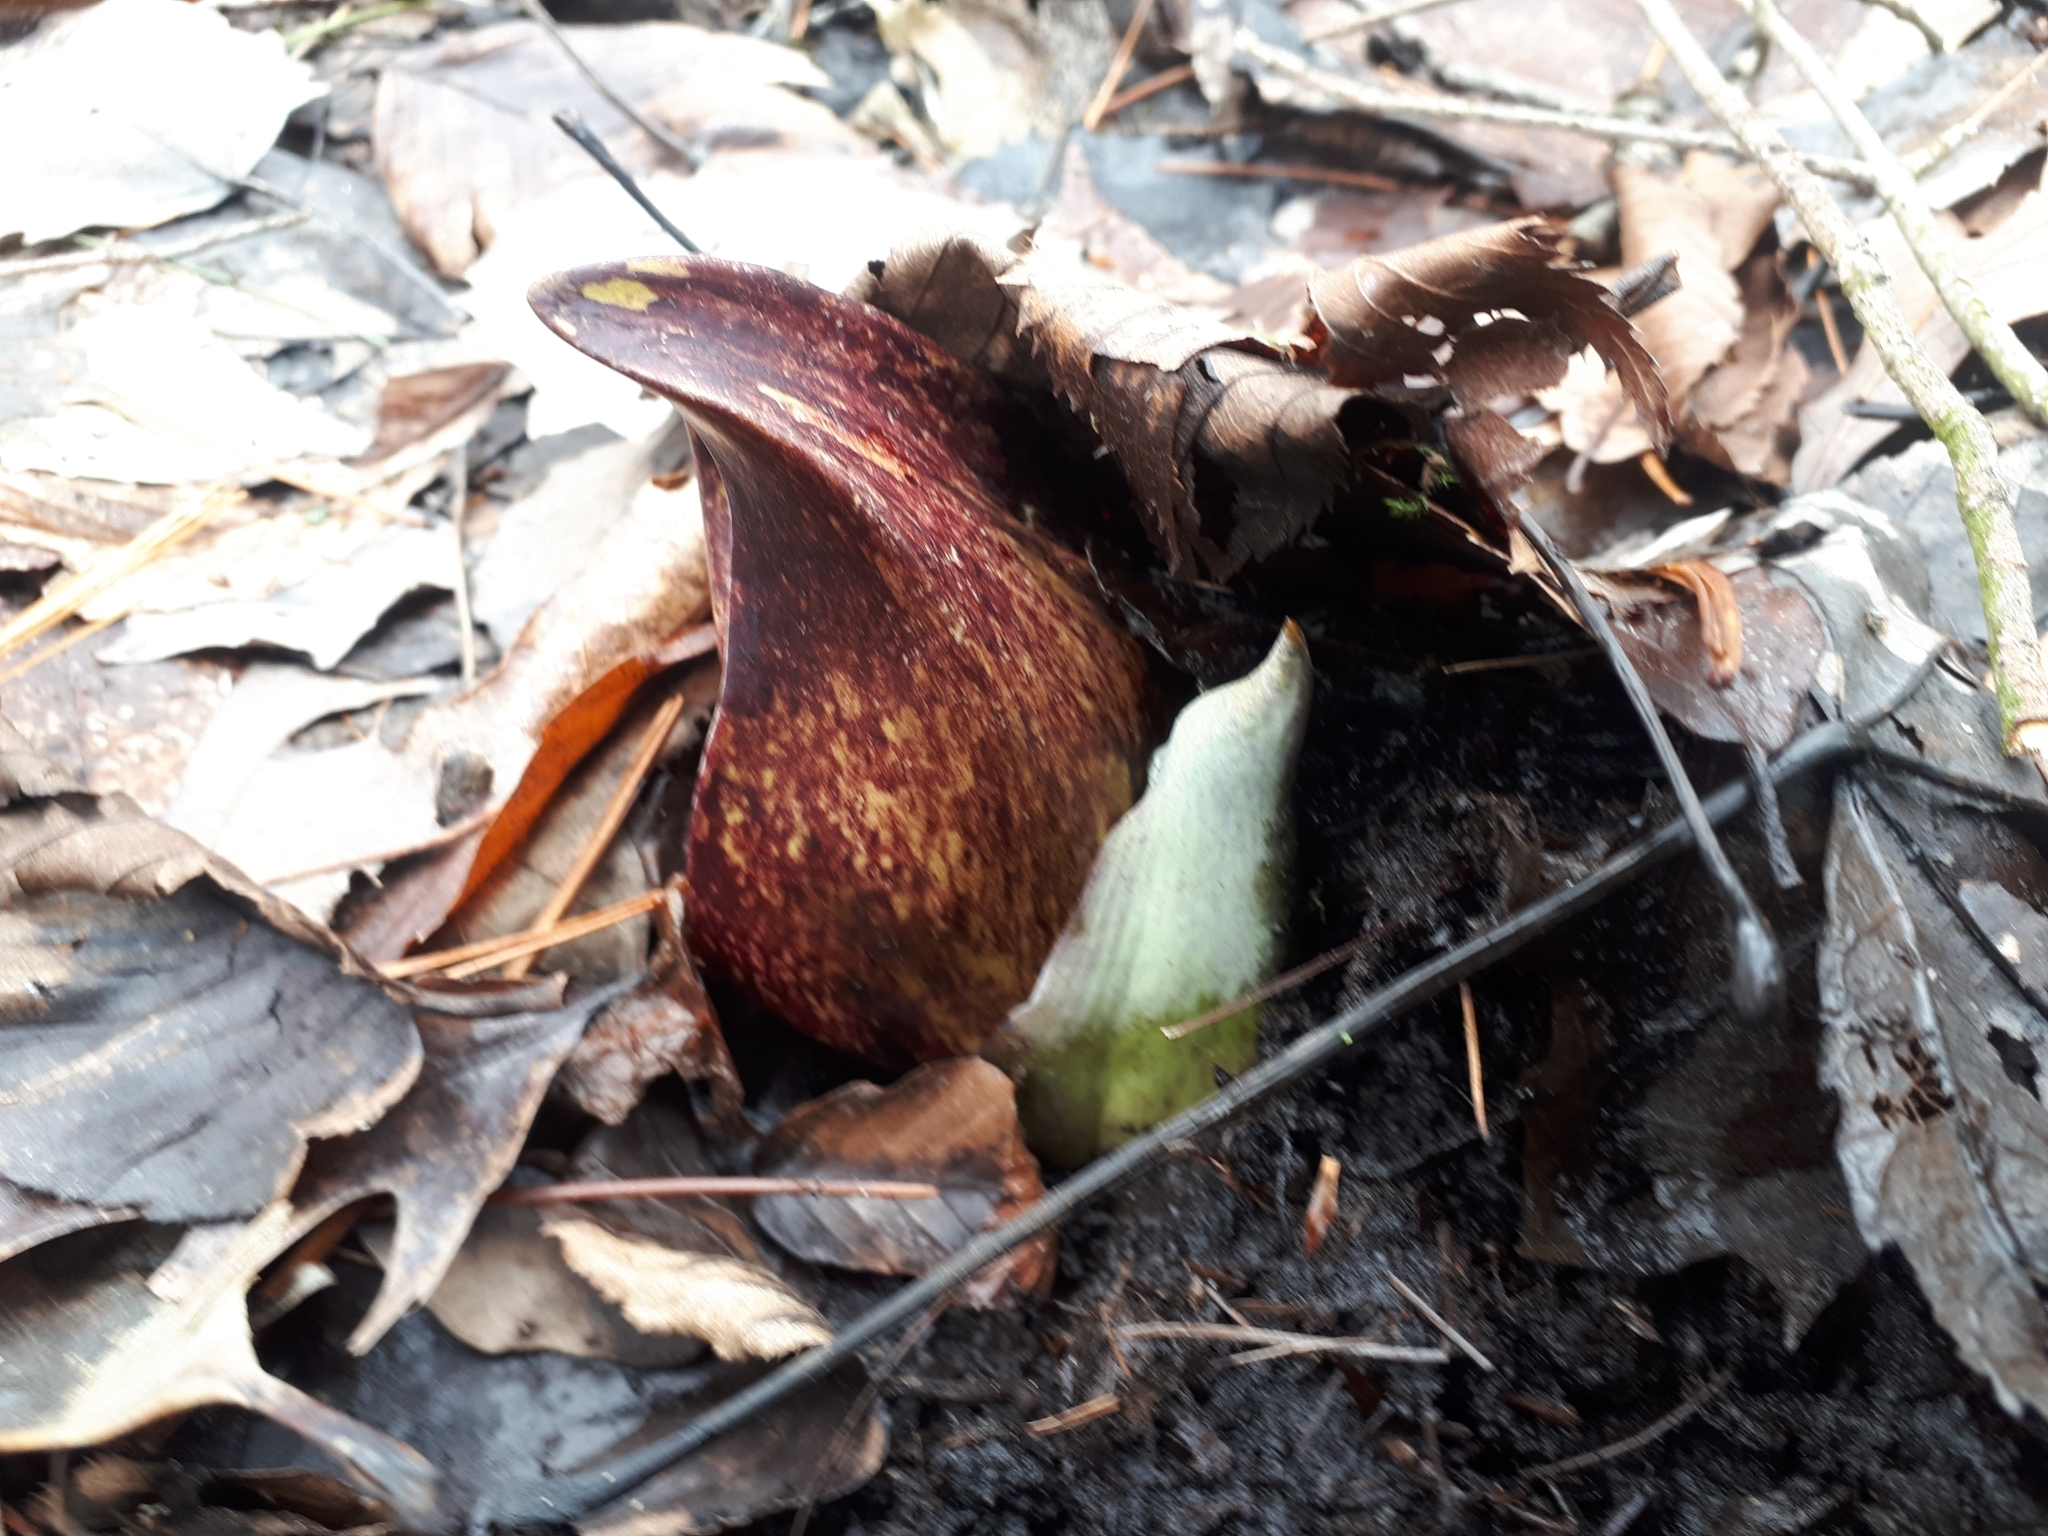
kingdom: Plantae
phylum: Tracheophyta
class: Liliopsida
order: Alismatales
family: Araceae
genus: Symplocarpus
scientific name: Symplocarpus foetidus
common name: Eastern skunk cabbage
